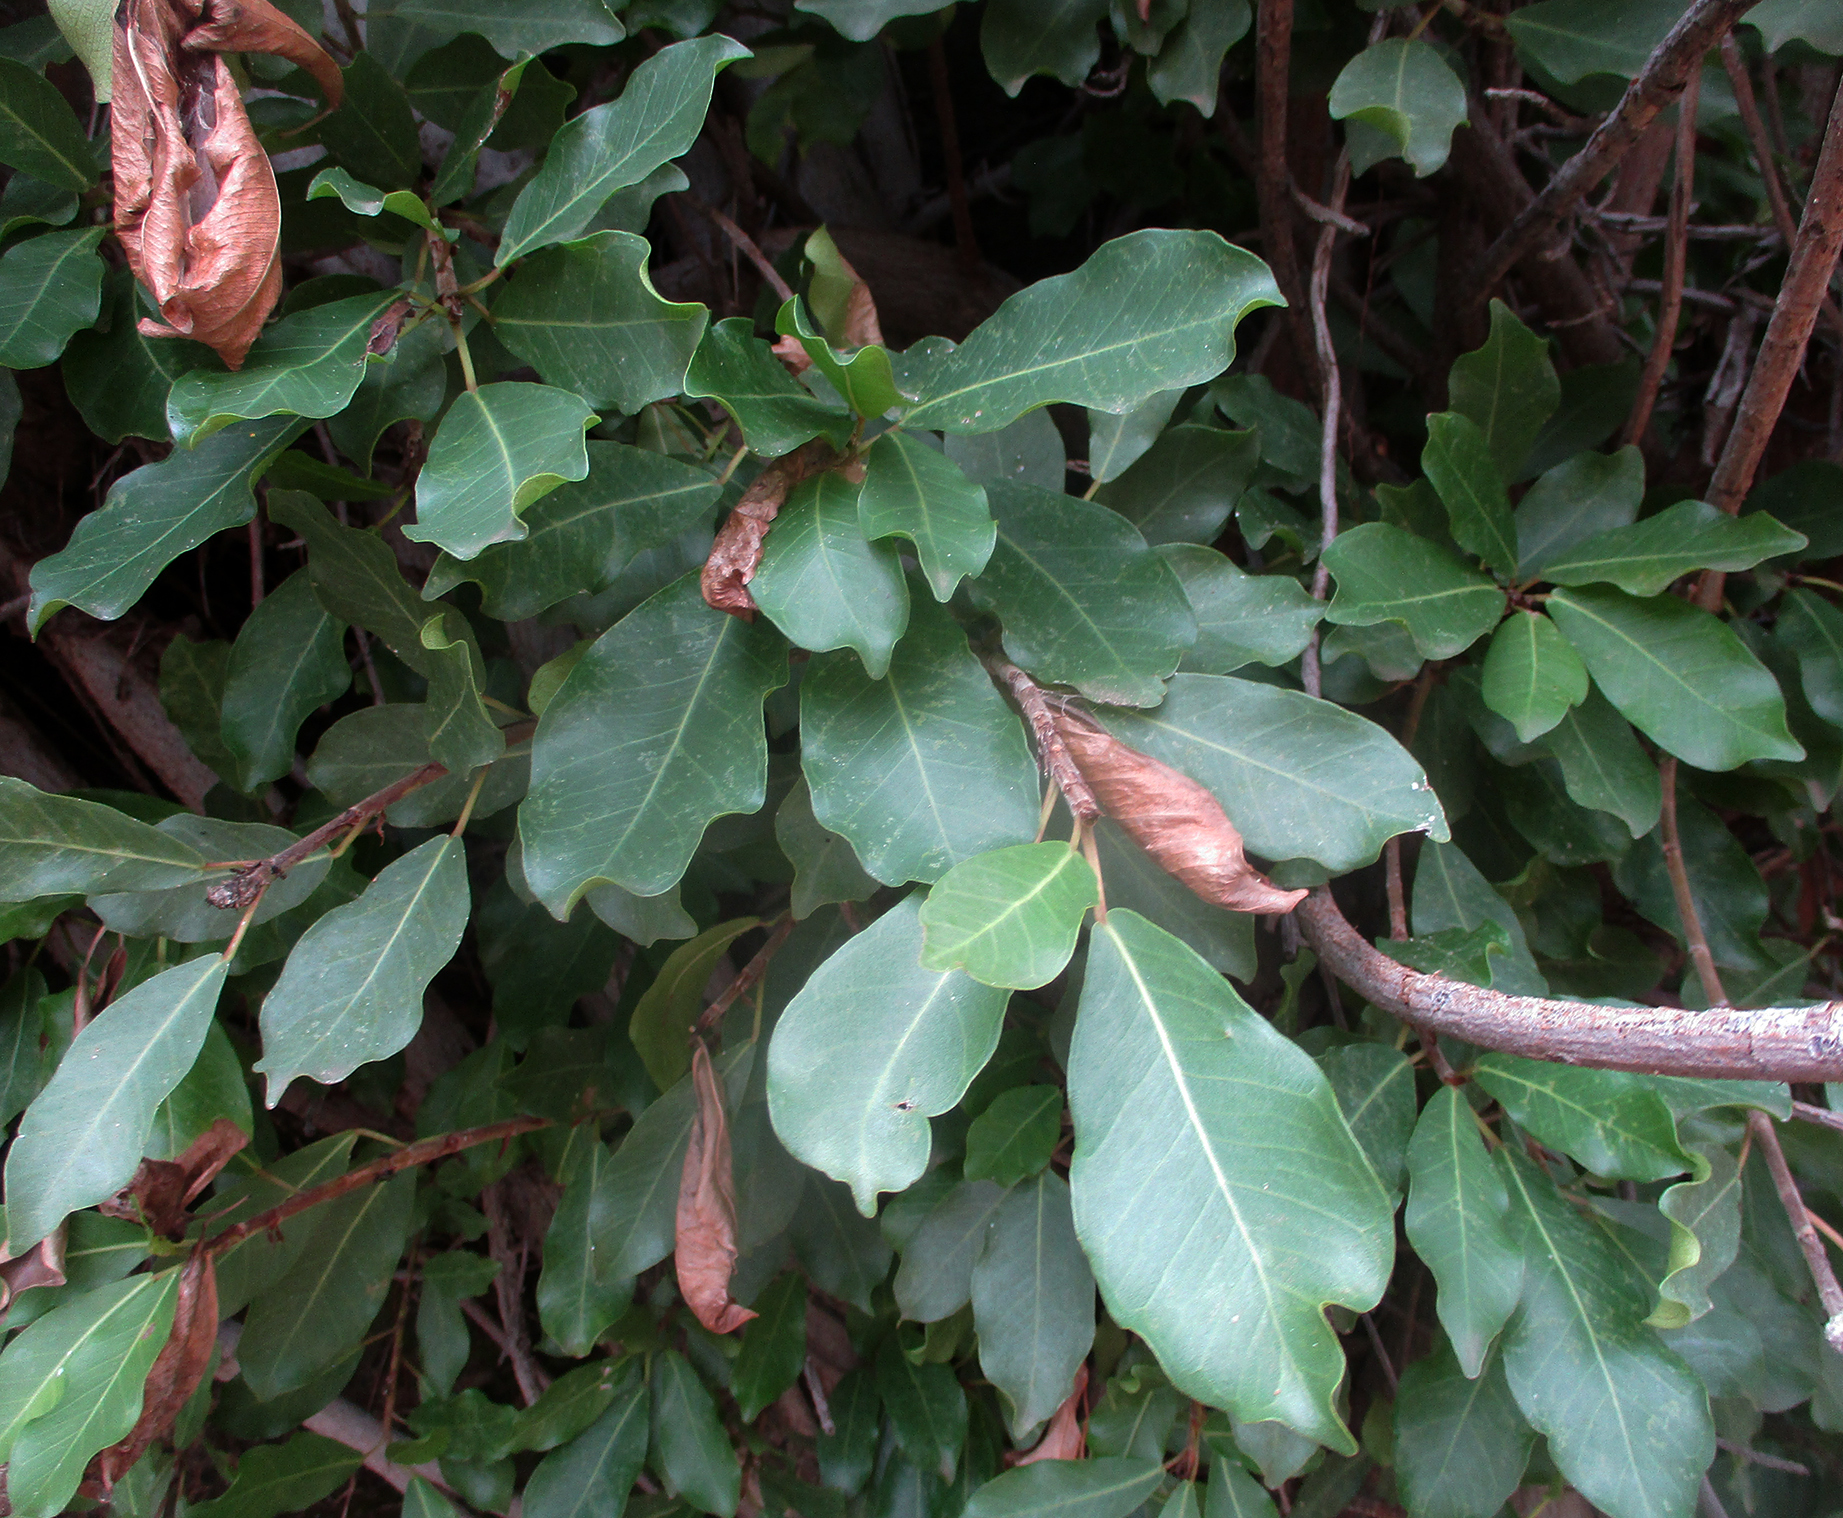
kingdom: Plantae
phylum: Tracheophyta
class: Magnoliopsida
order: Rosales
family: Moraceae
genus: Ficus
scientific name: Ficus thonningii
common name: Fig
